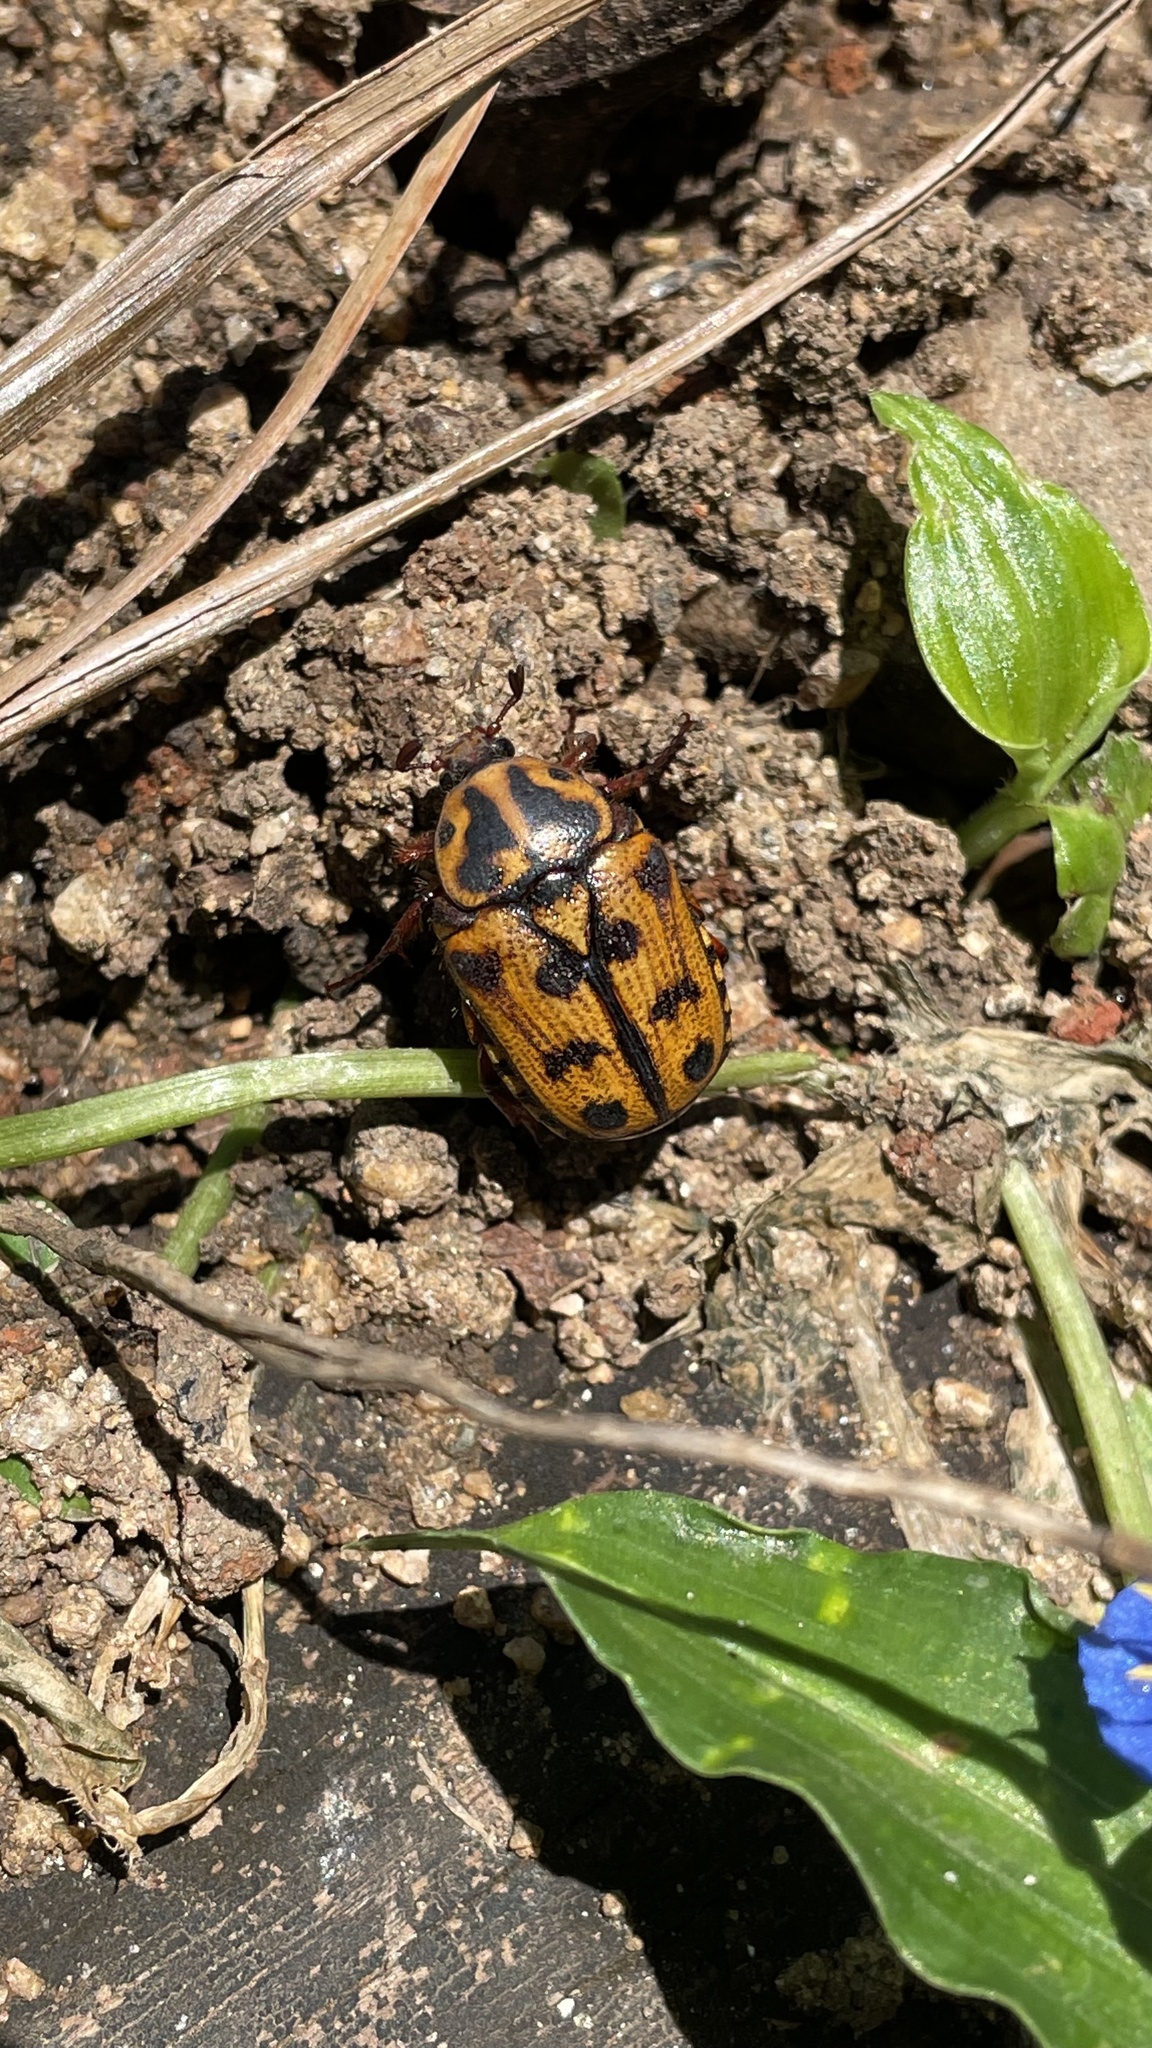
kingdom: Animalia
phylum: Arthropoda
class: Insecta
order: Coleoptera
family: Scarabaeidae
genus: Lyraphora
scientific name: Lyraphora obliquata
